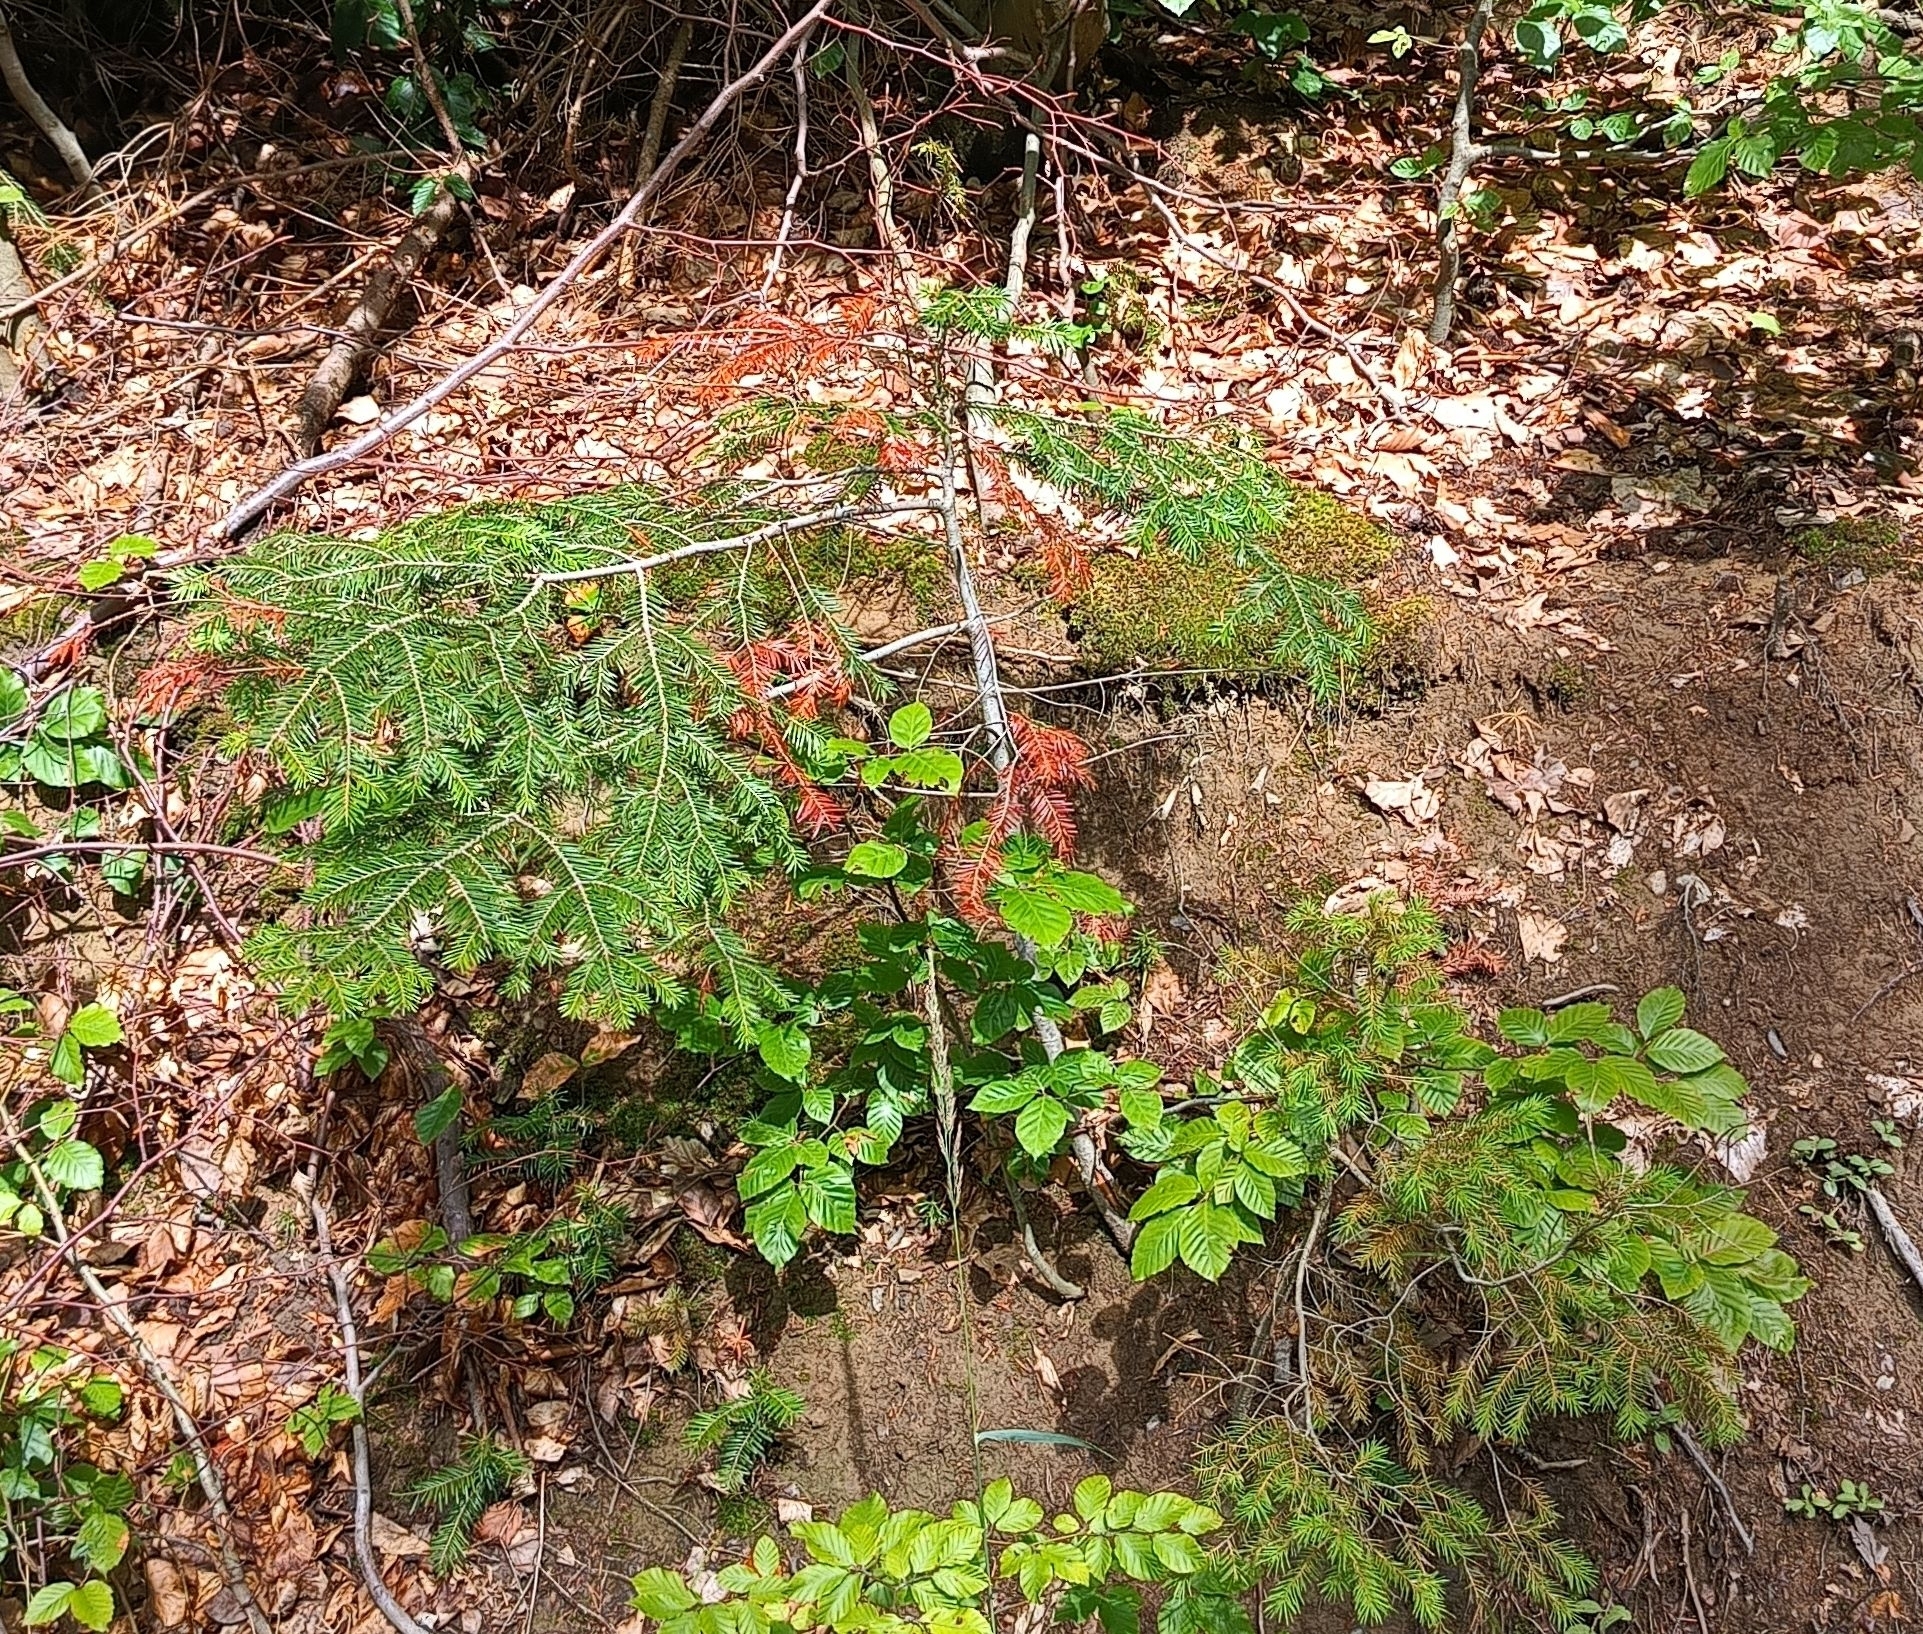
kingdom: Plantae
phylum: Tracheophyta
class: Pinopsida
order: Pinales
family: Pinaceae
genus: Abies
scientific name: Abies alba
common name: Silver fir
